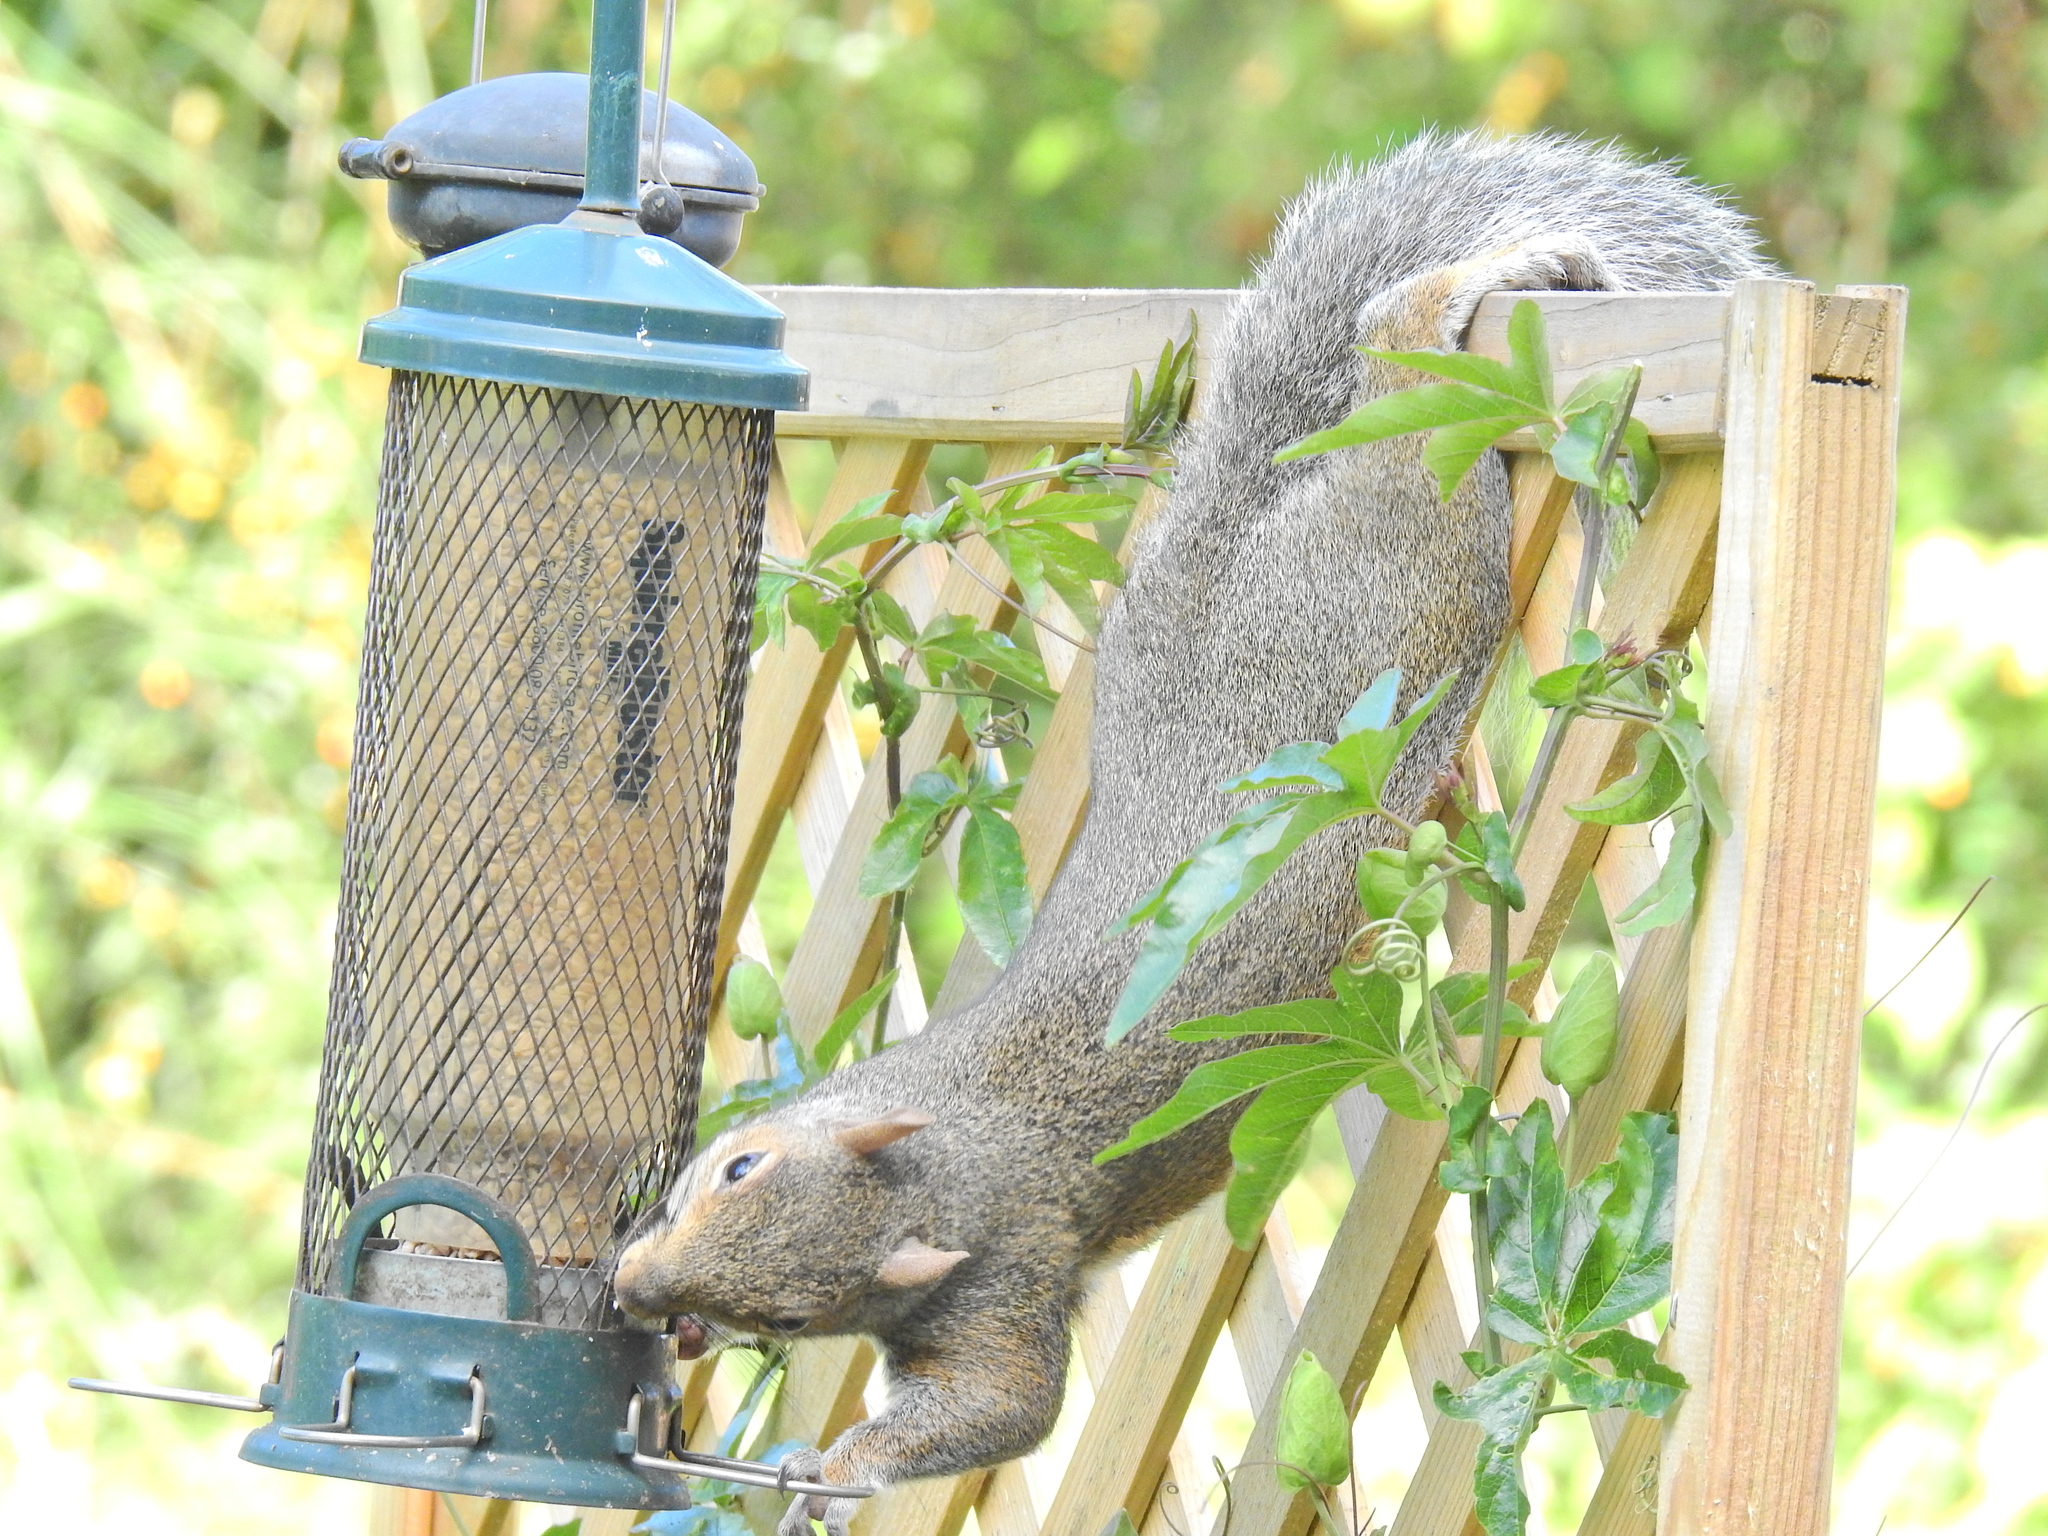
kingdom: Animalia
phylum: Chordata
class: Mammalia
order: Rodentia
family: Sciuridae
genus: Sciurus
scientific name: Sciurus carolinensis
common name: Eastern gray squirrel
